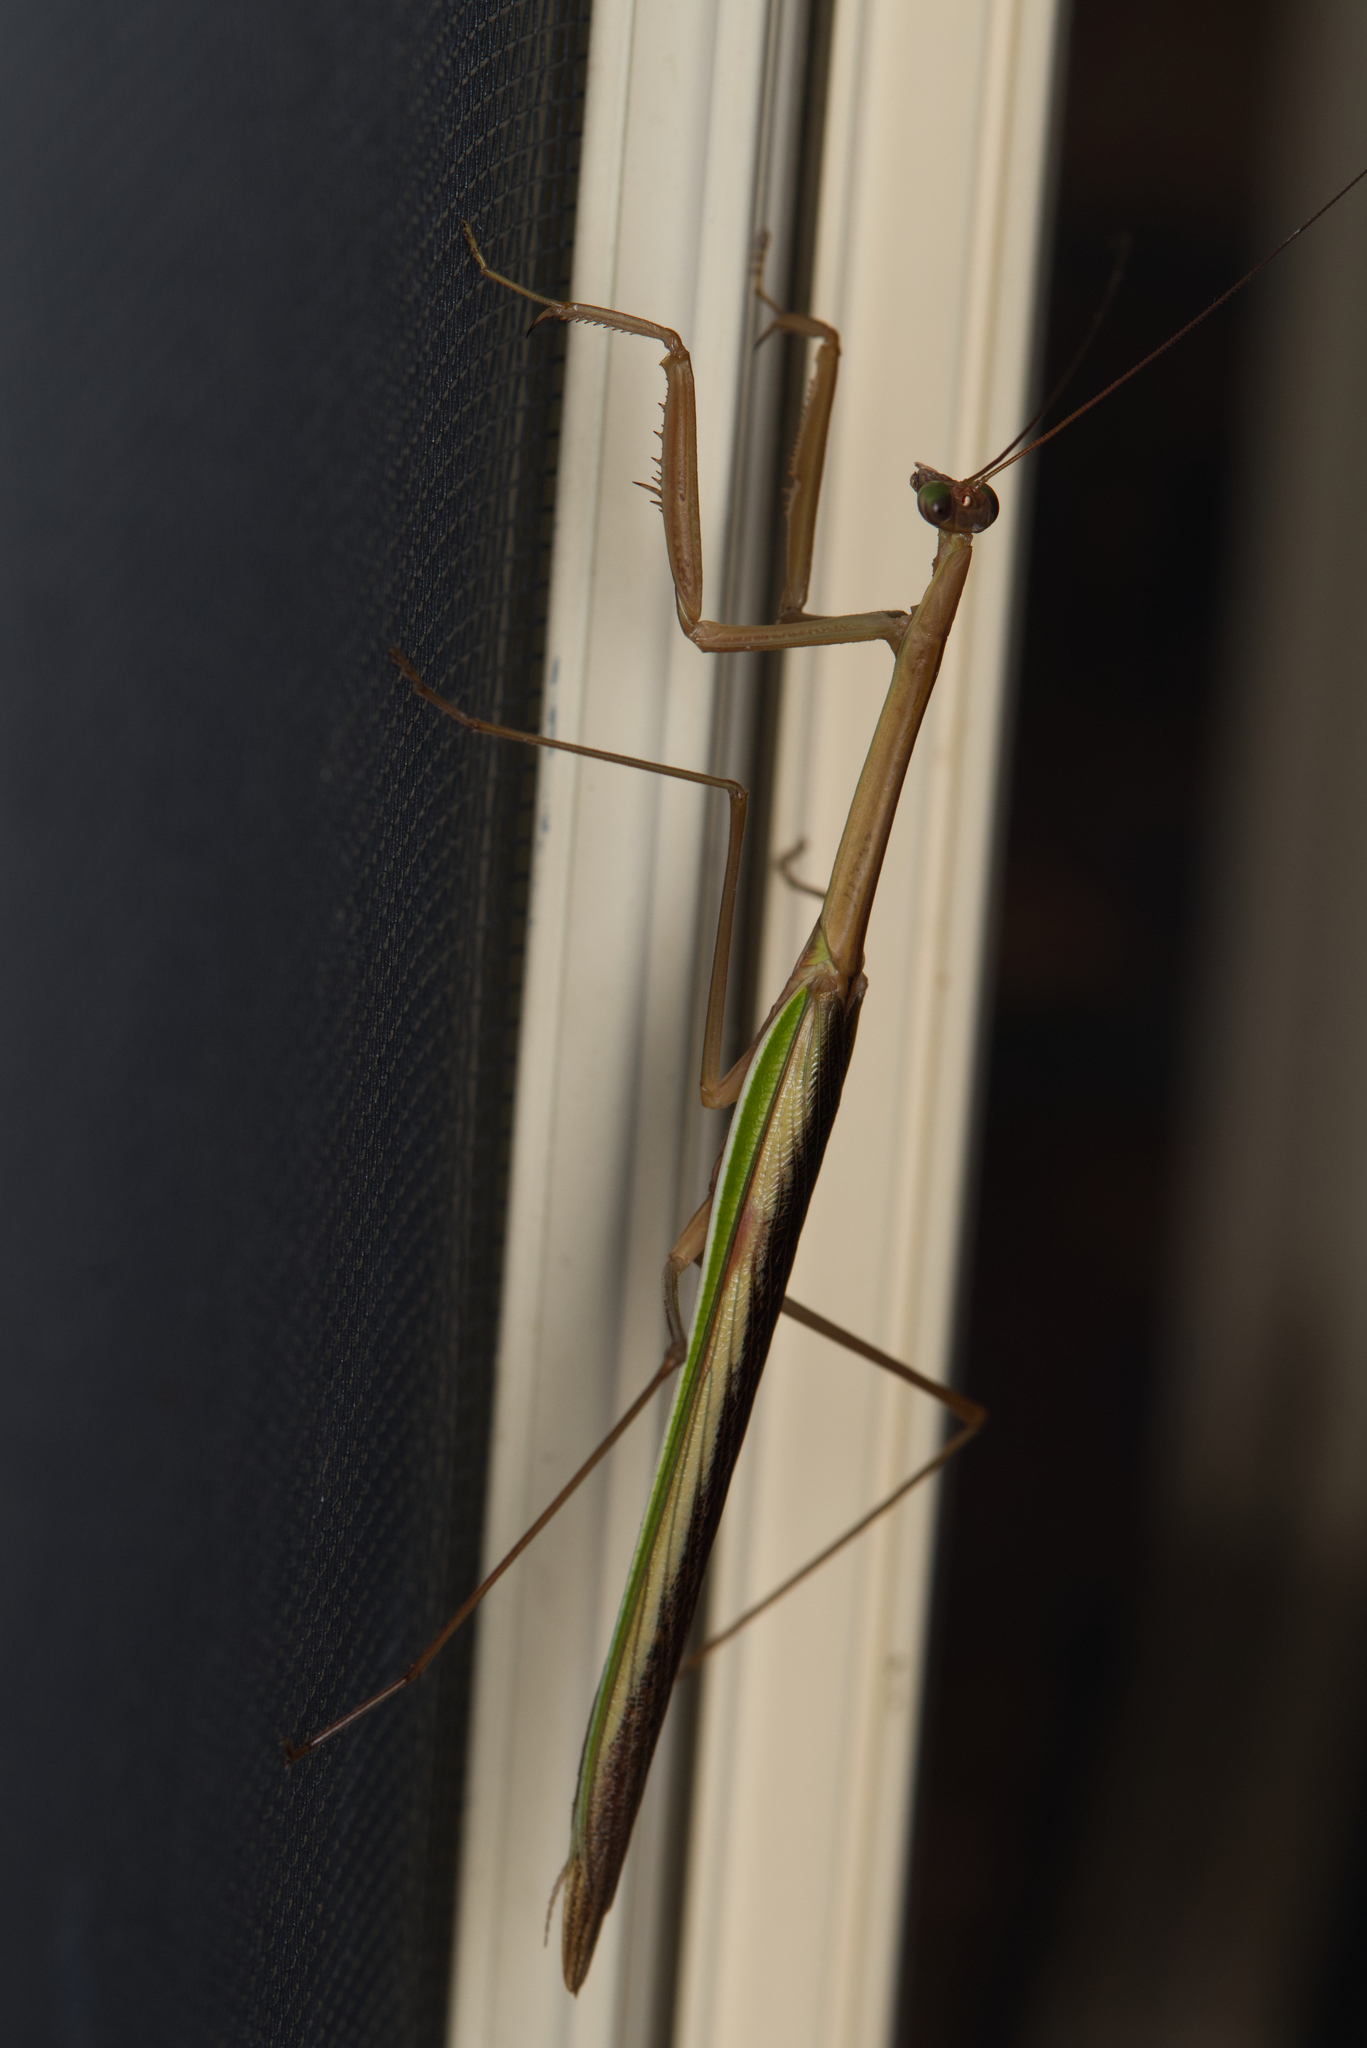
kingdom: Animalia
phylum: Arthropoda
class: Insecta
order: Mantodea
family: Mantidae
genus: Tenodera
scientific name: Tenodera australasiae
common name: Purple-winged mantis
